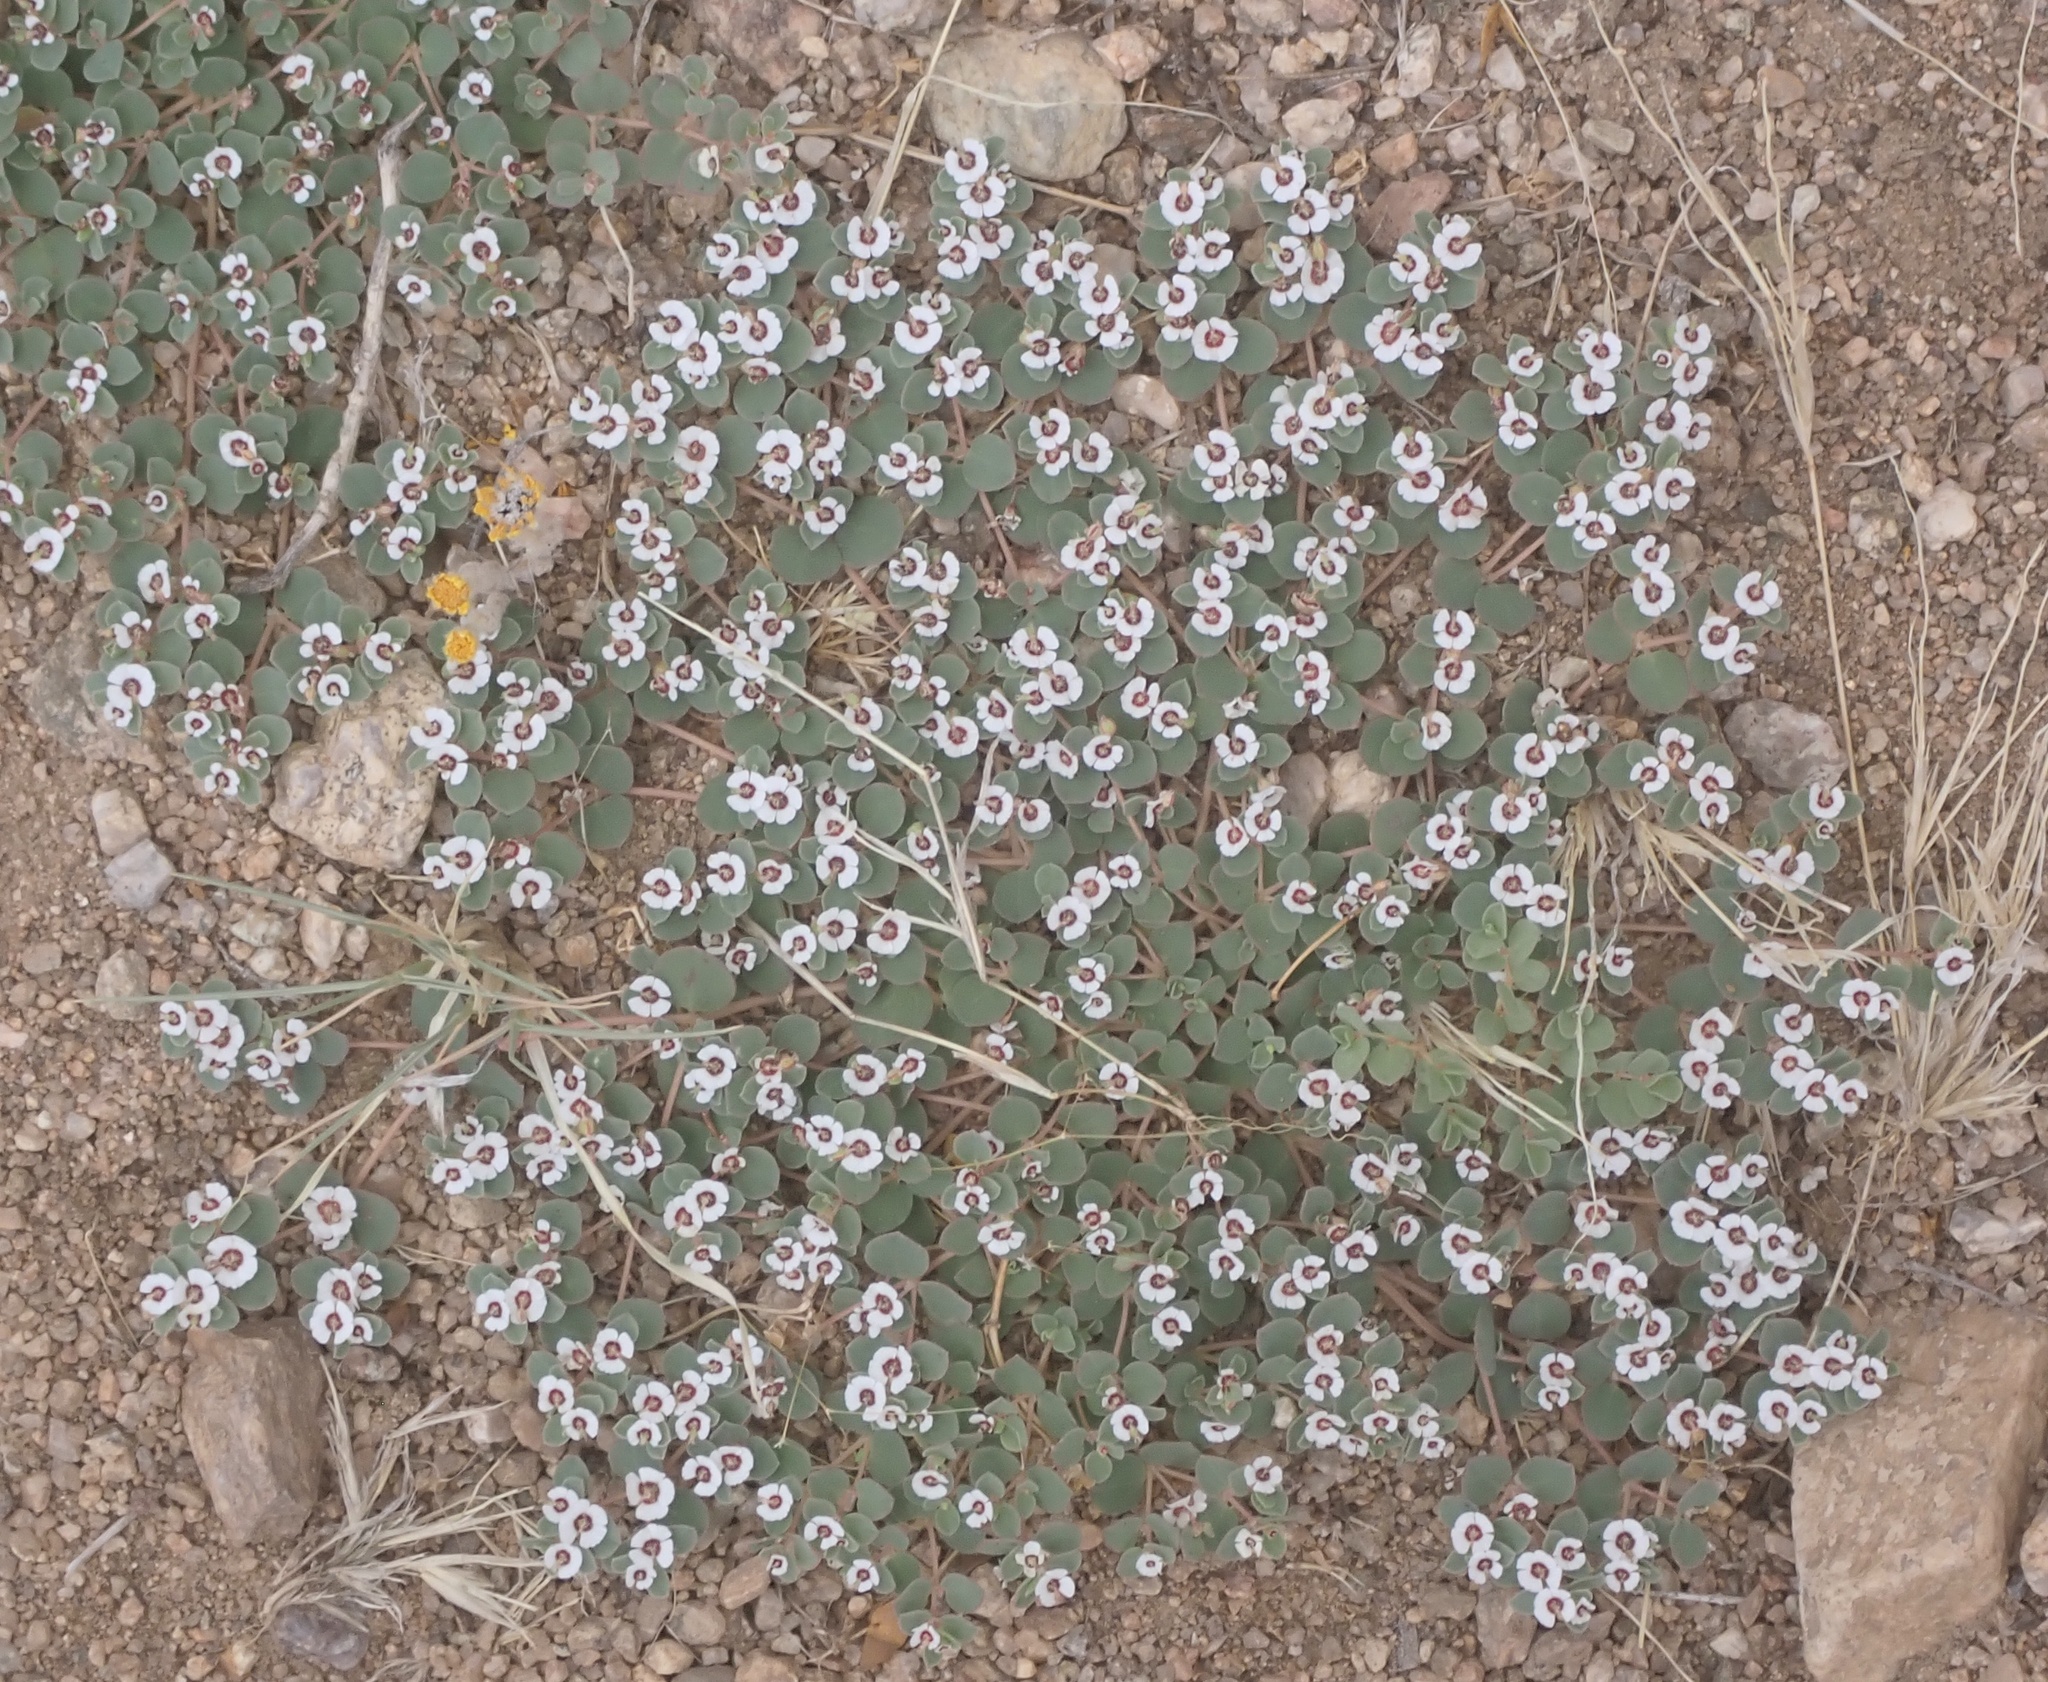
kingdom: Plantae
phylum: Tracheophyta
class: Magnoliopsida
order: Malpighiales
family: Euphorbiaceae
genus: Euphorbia
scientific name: Euphorbia albomarginata
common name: Whitemargin sandmat
